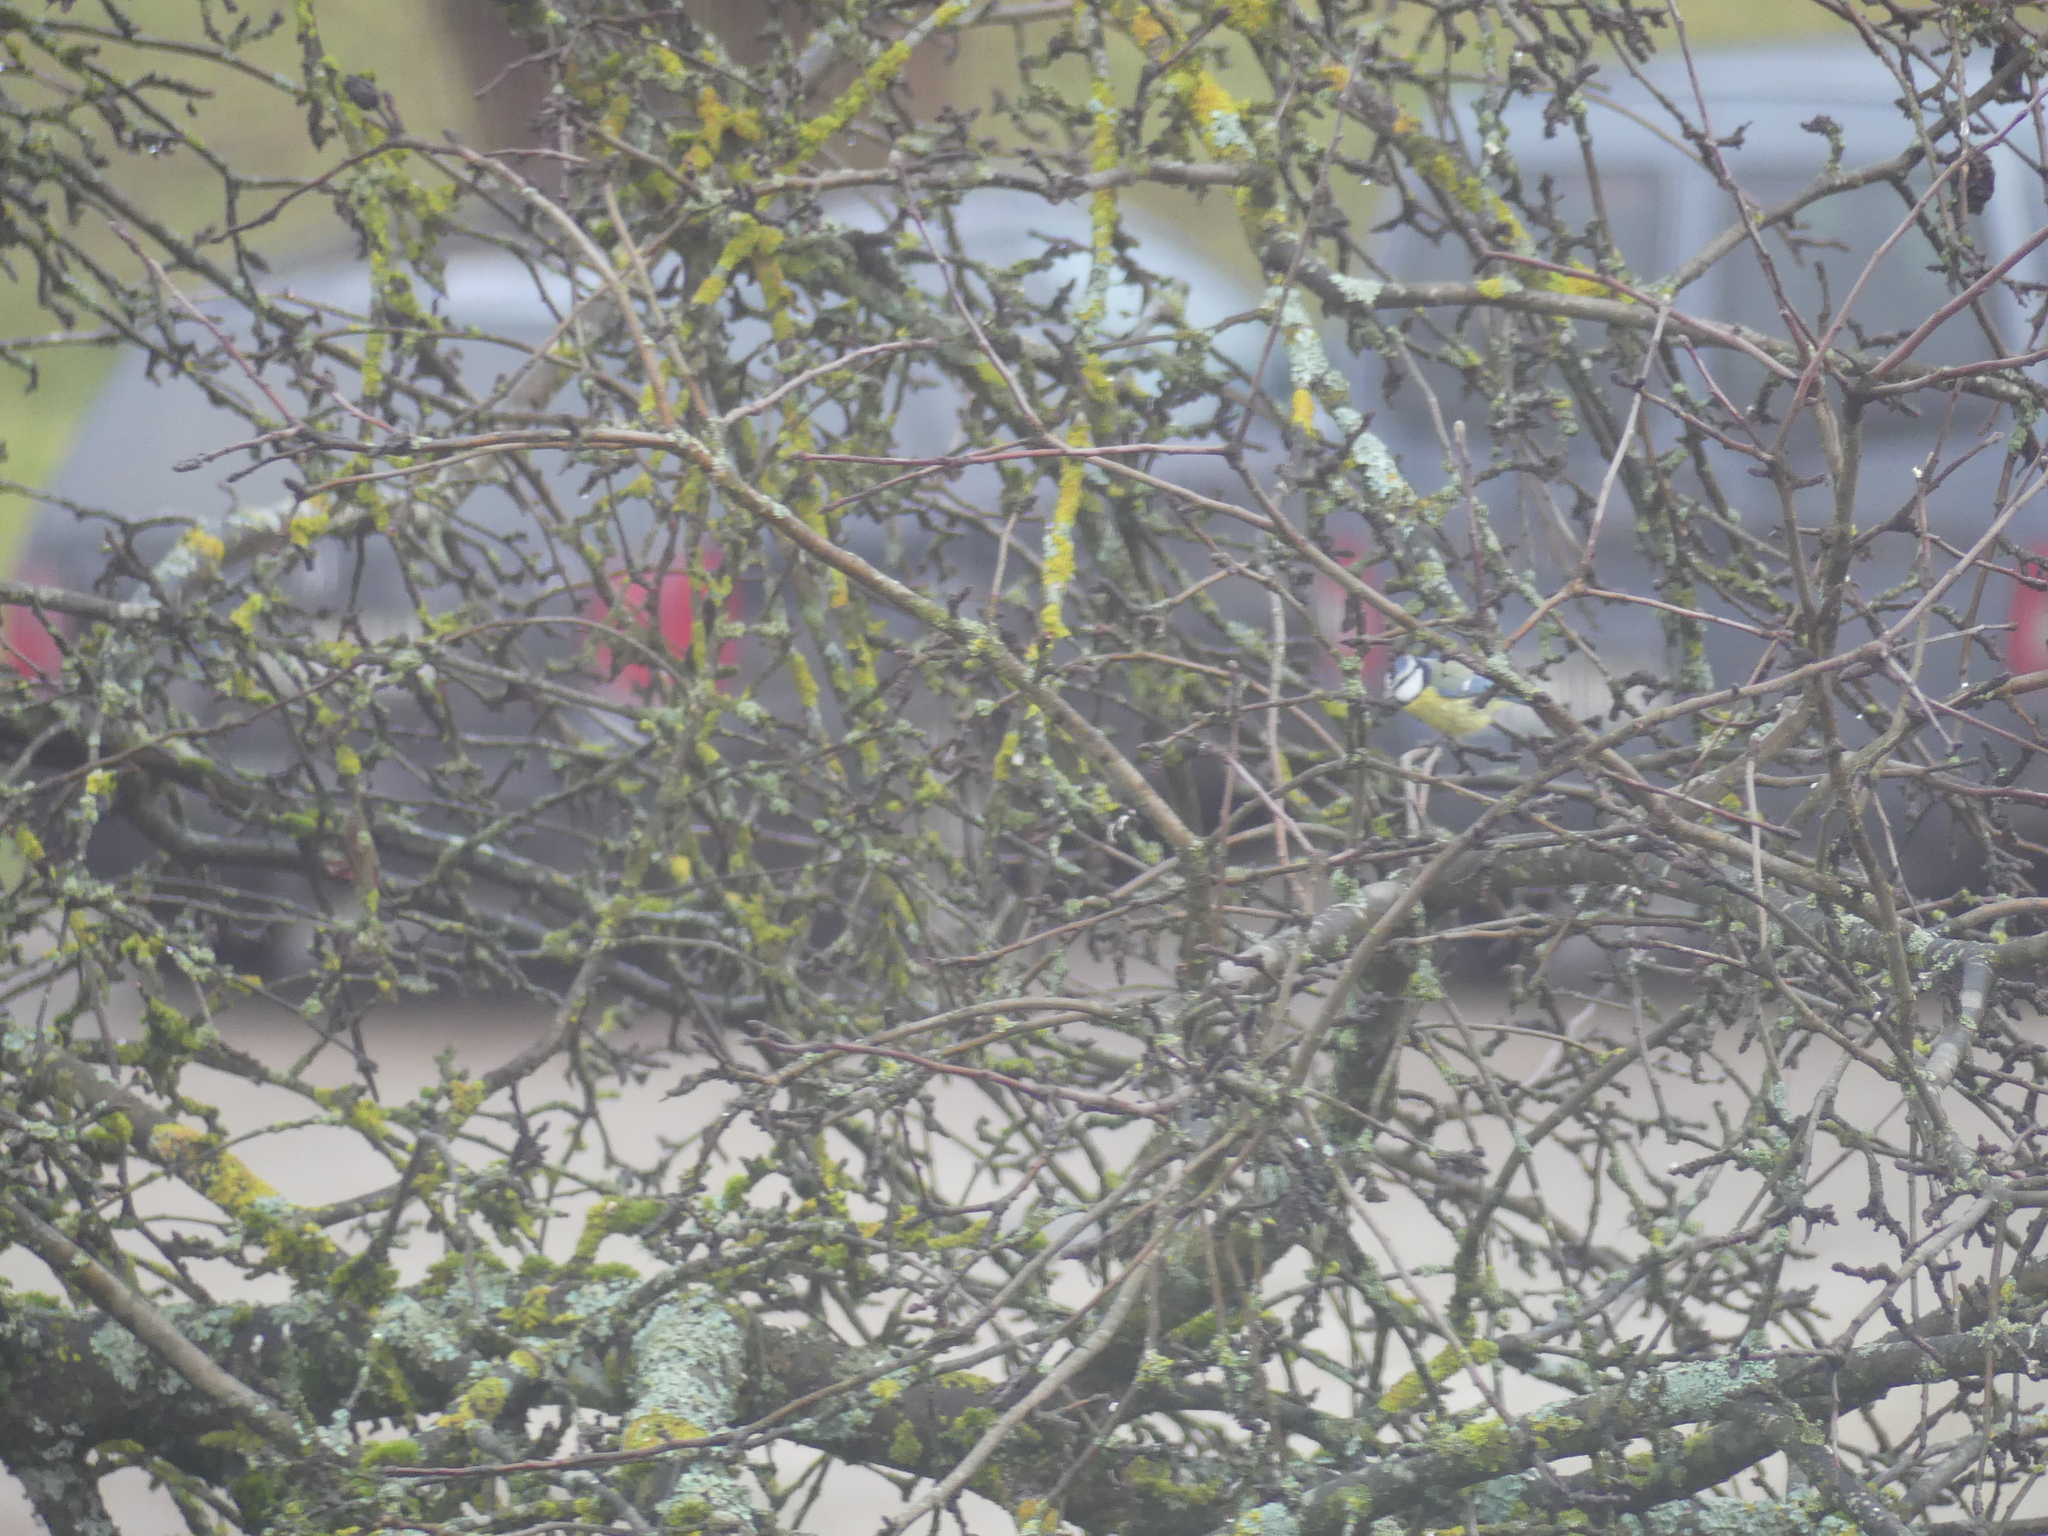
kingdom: Animalia
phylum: Chordata
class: Aves
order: Passeriformes
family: Paridae
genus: Cyanistes
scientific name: Cyanistes caeruleus
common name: Eurasian blue tit
